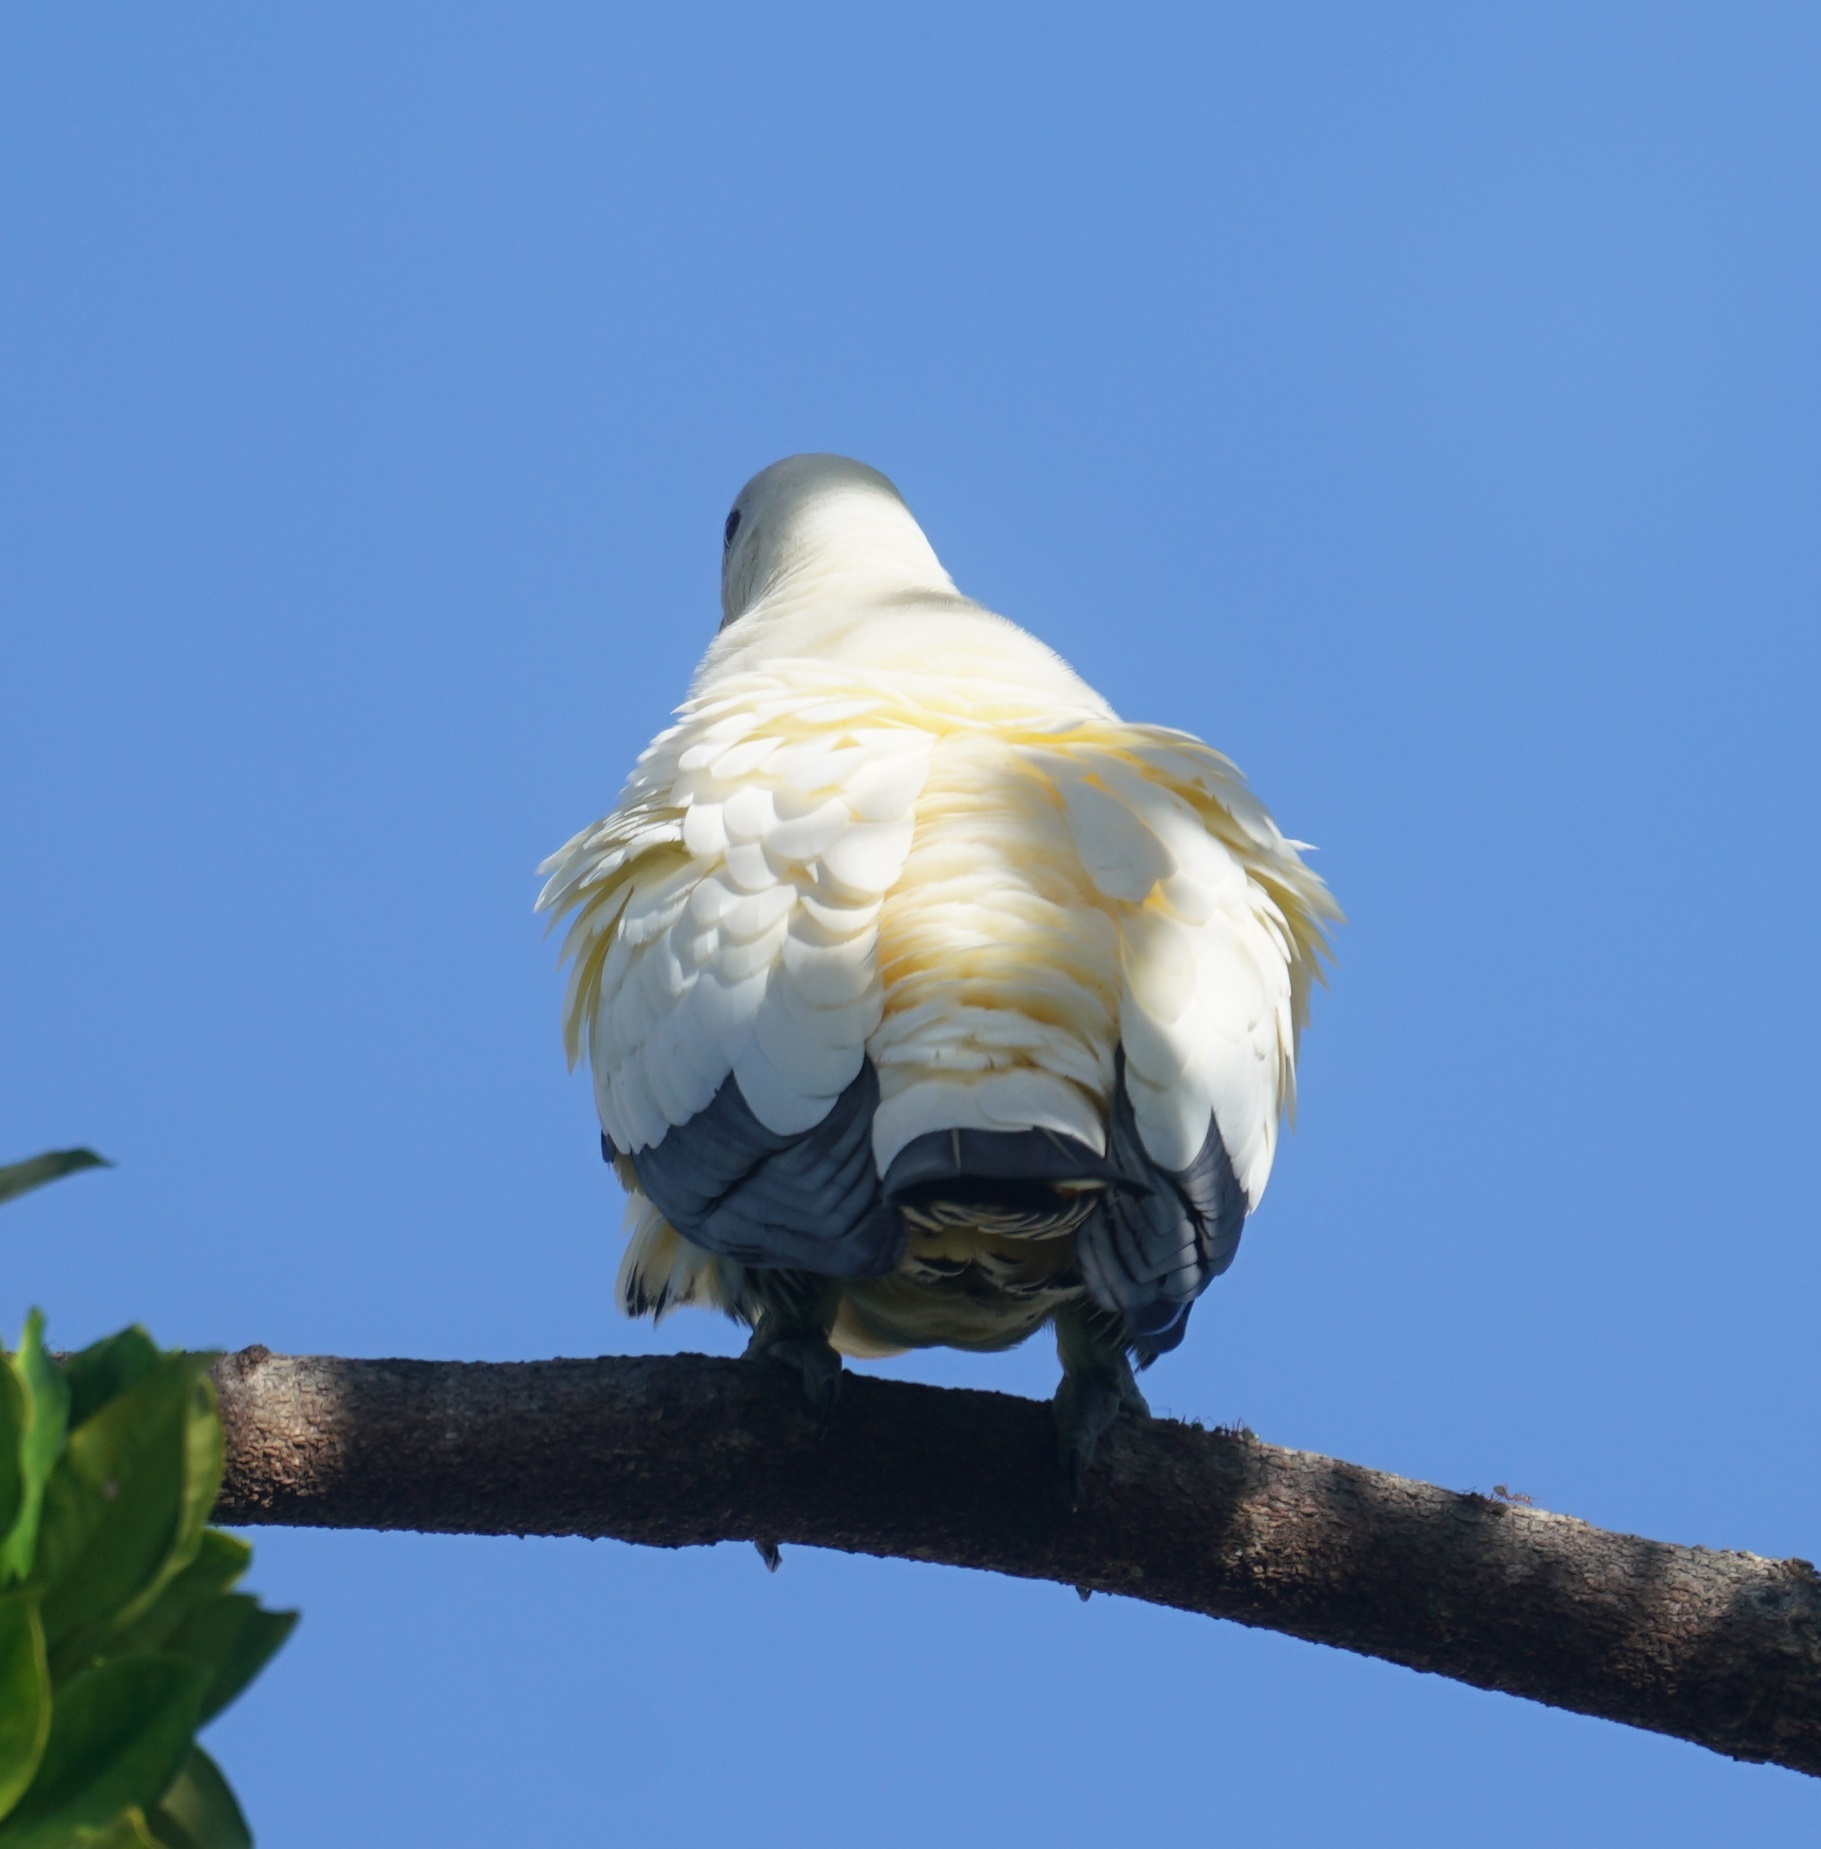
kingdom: Animalia
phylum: Chordata
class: Aves
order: Columbiformes
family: Columbidae
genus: Ducula
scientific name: Ducula spilorrhoa
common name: Torresian imperial pigeon
